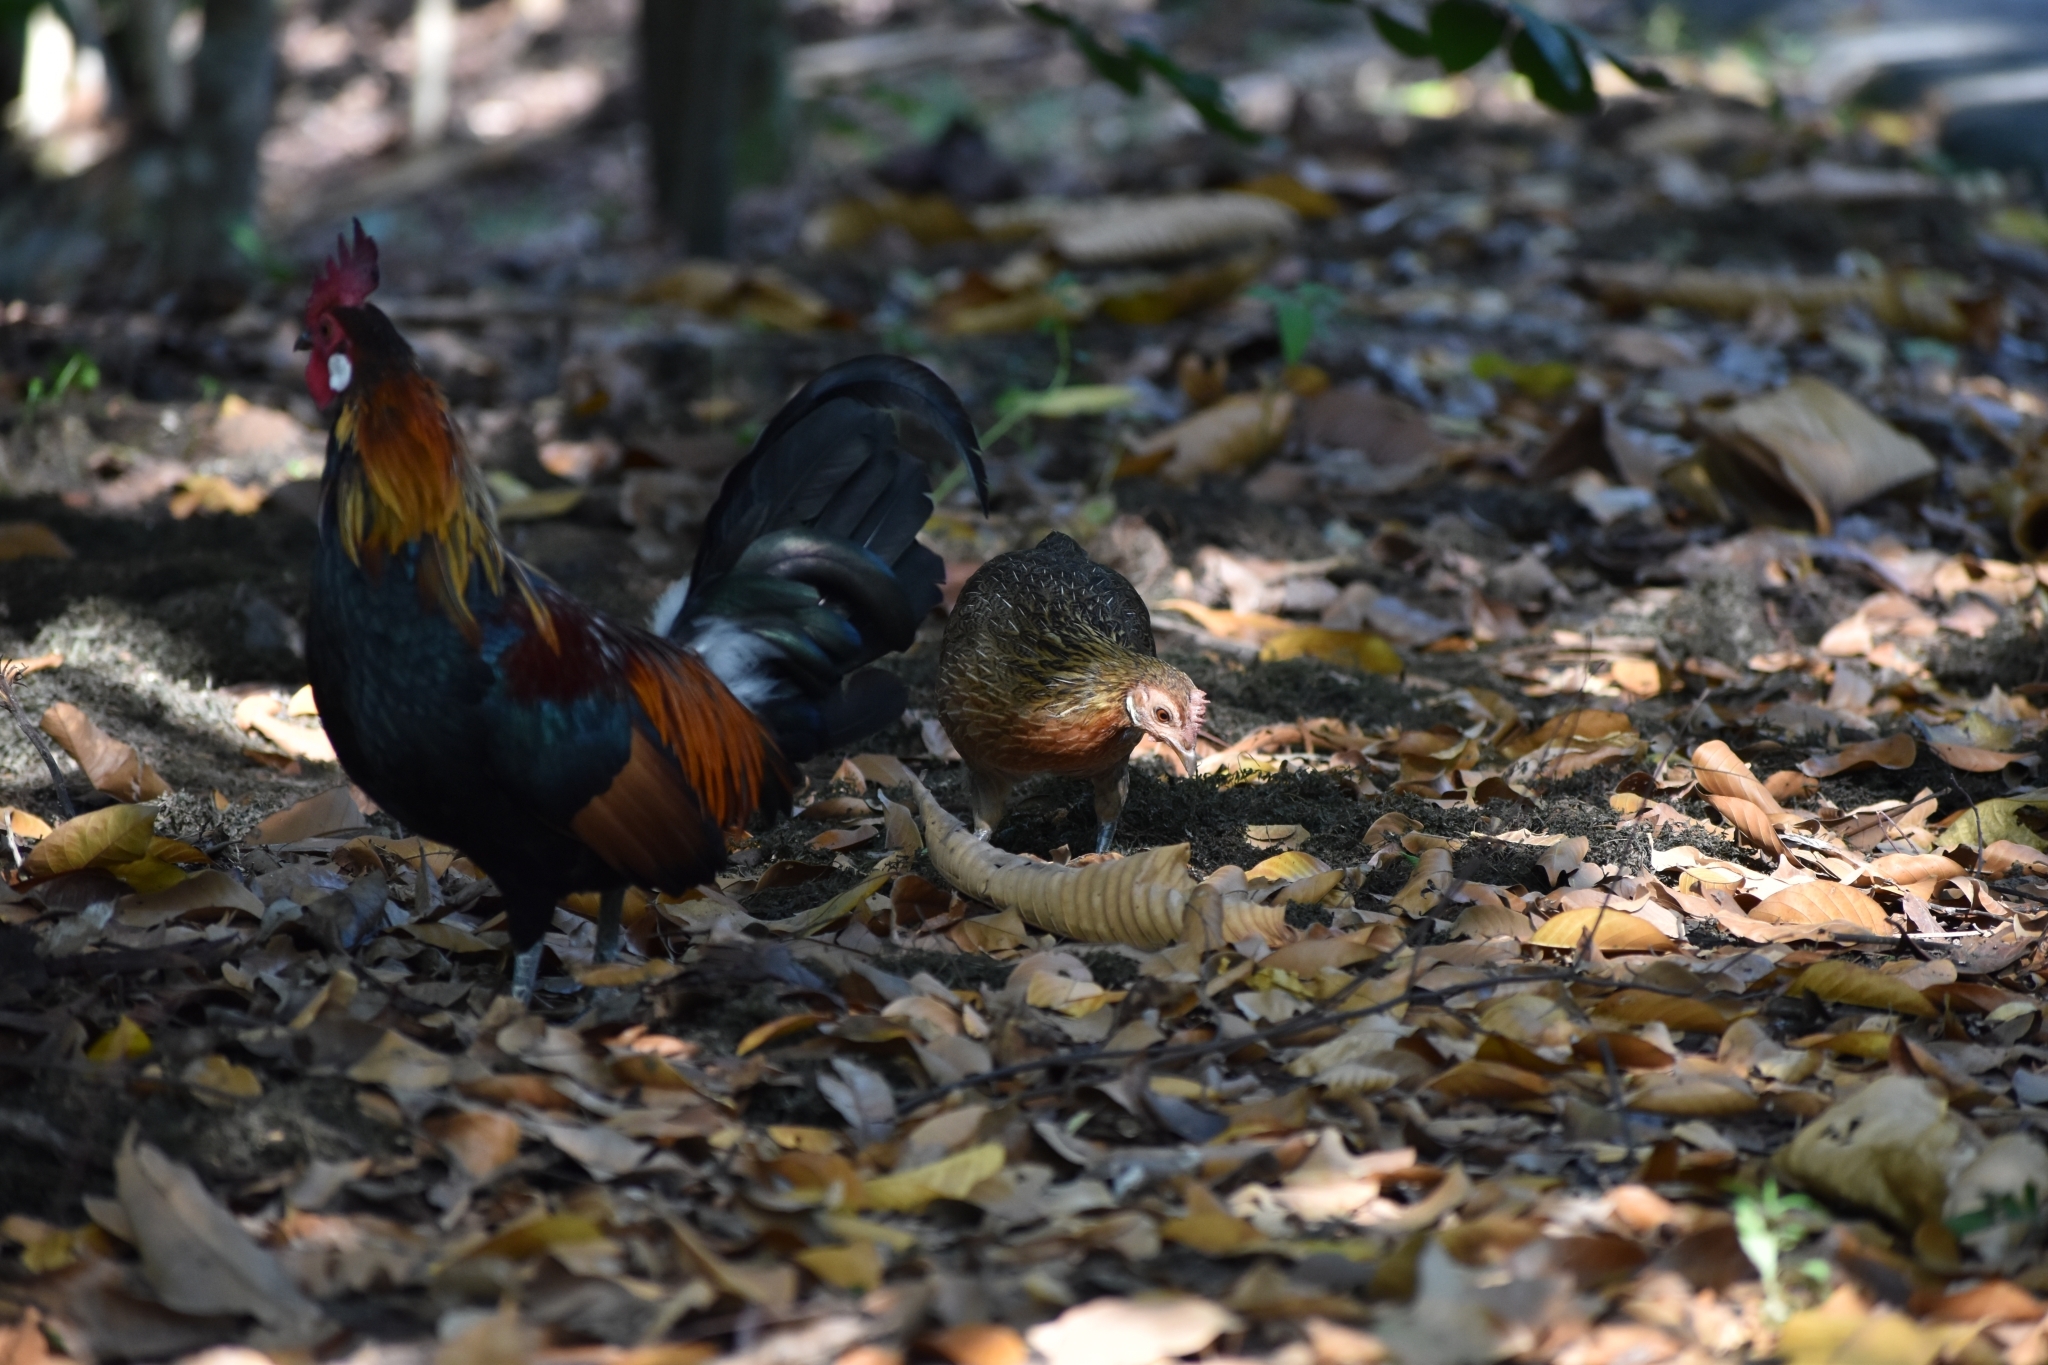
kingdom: Animalia
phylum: Chordata
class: Aves
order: Galliformes
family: Phasianidae
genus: Gallus
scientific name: Gallus gallus
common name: Red junglefowl
